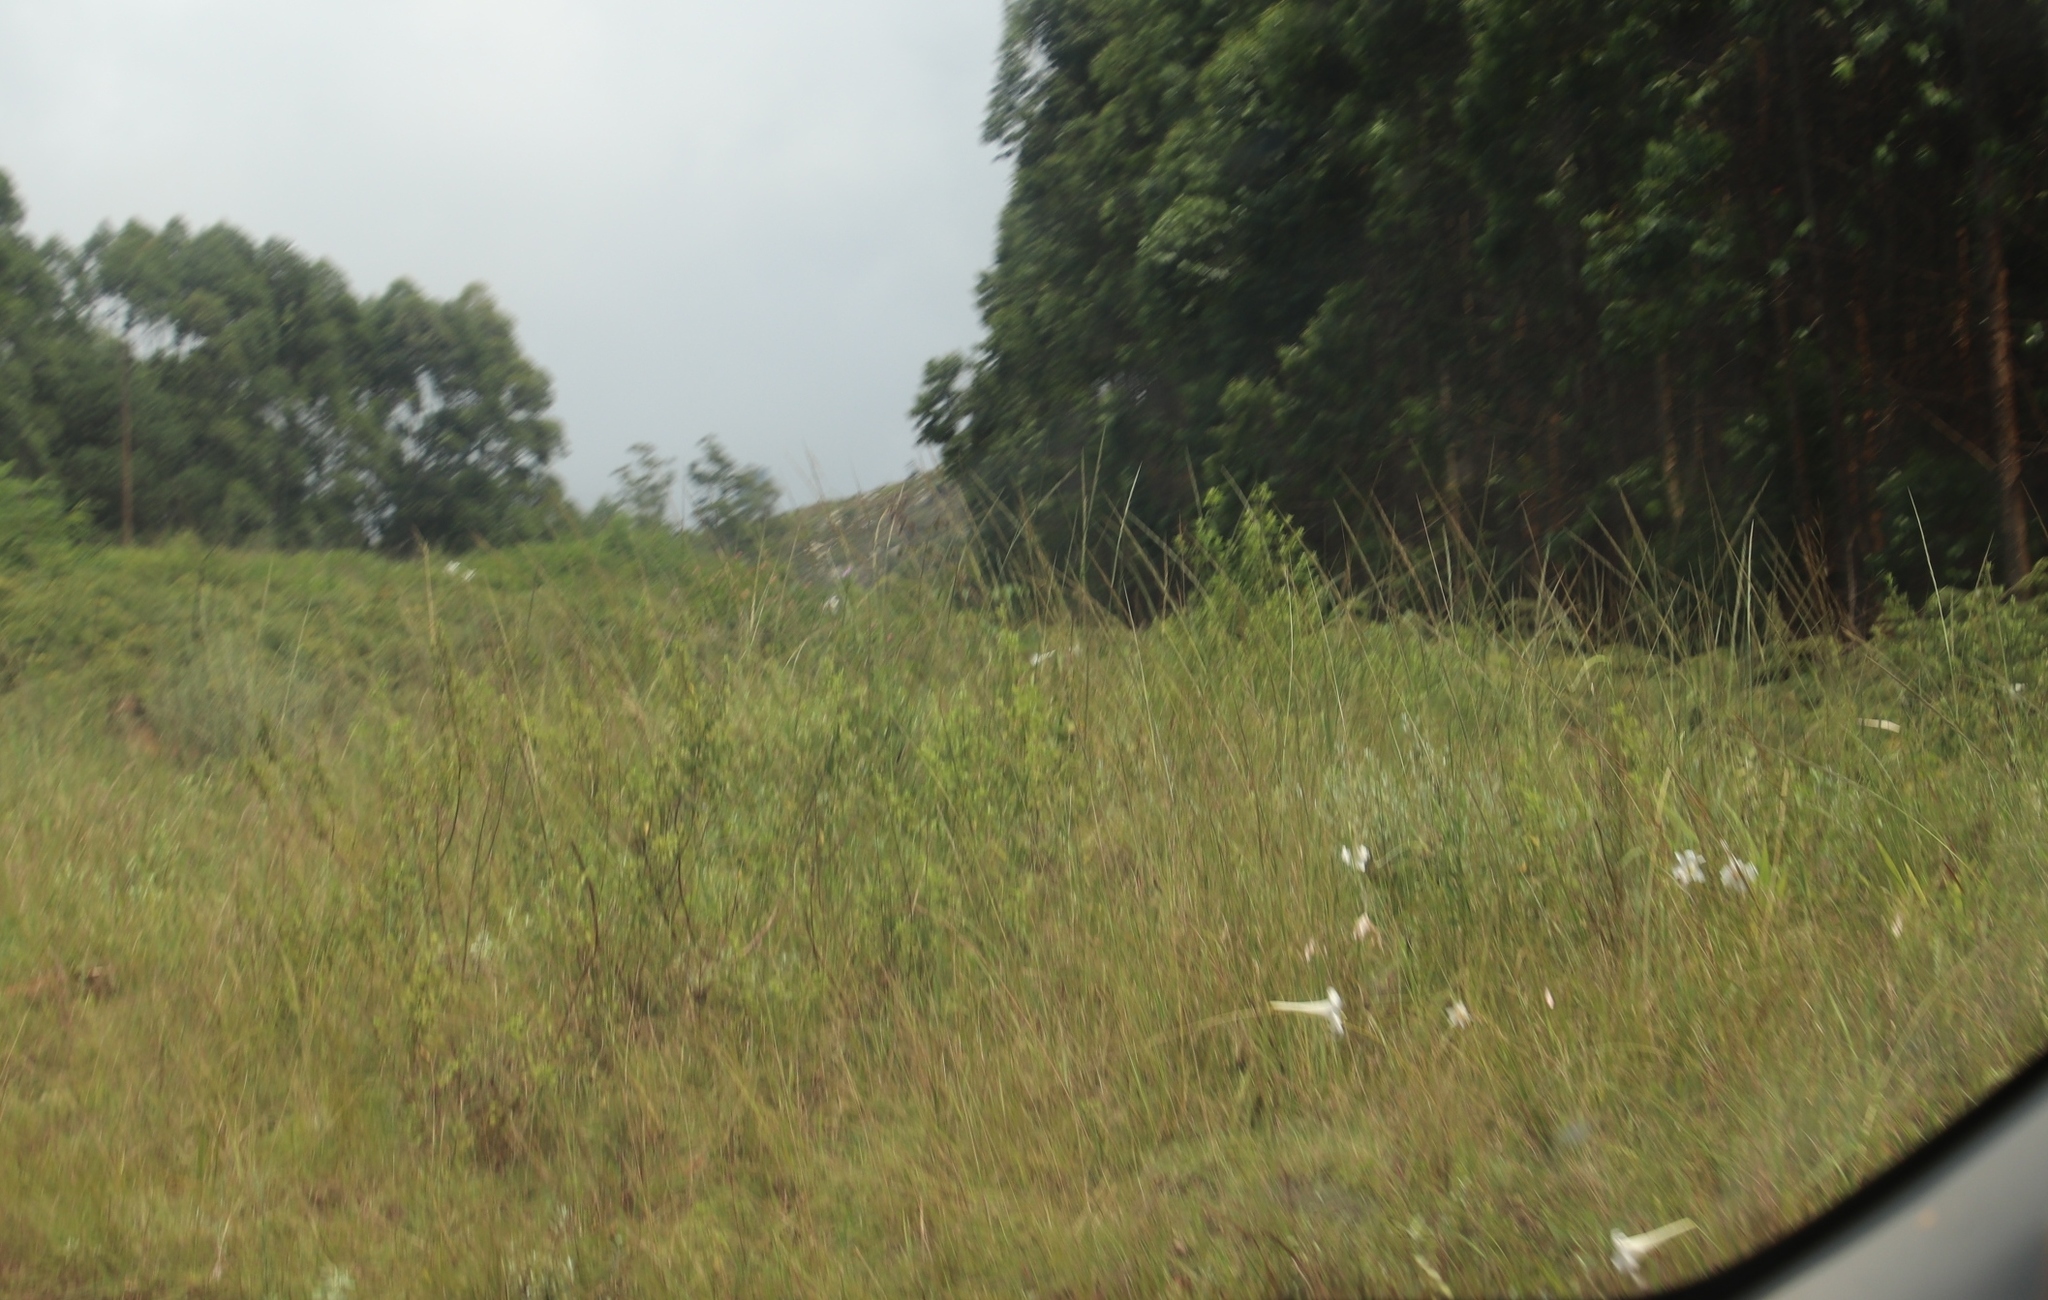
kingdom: Plantae
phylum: Tracheophyta
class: Liliopsida
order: Liliales
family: Liliaceae
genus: Lilium
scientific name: Lilium formosanum
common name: Formosa lily
